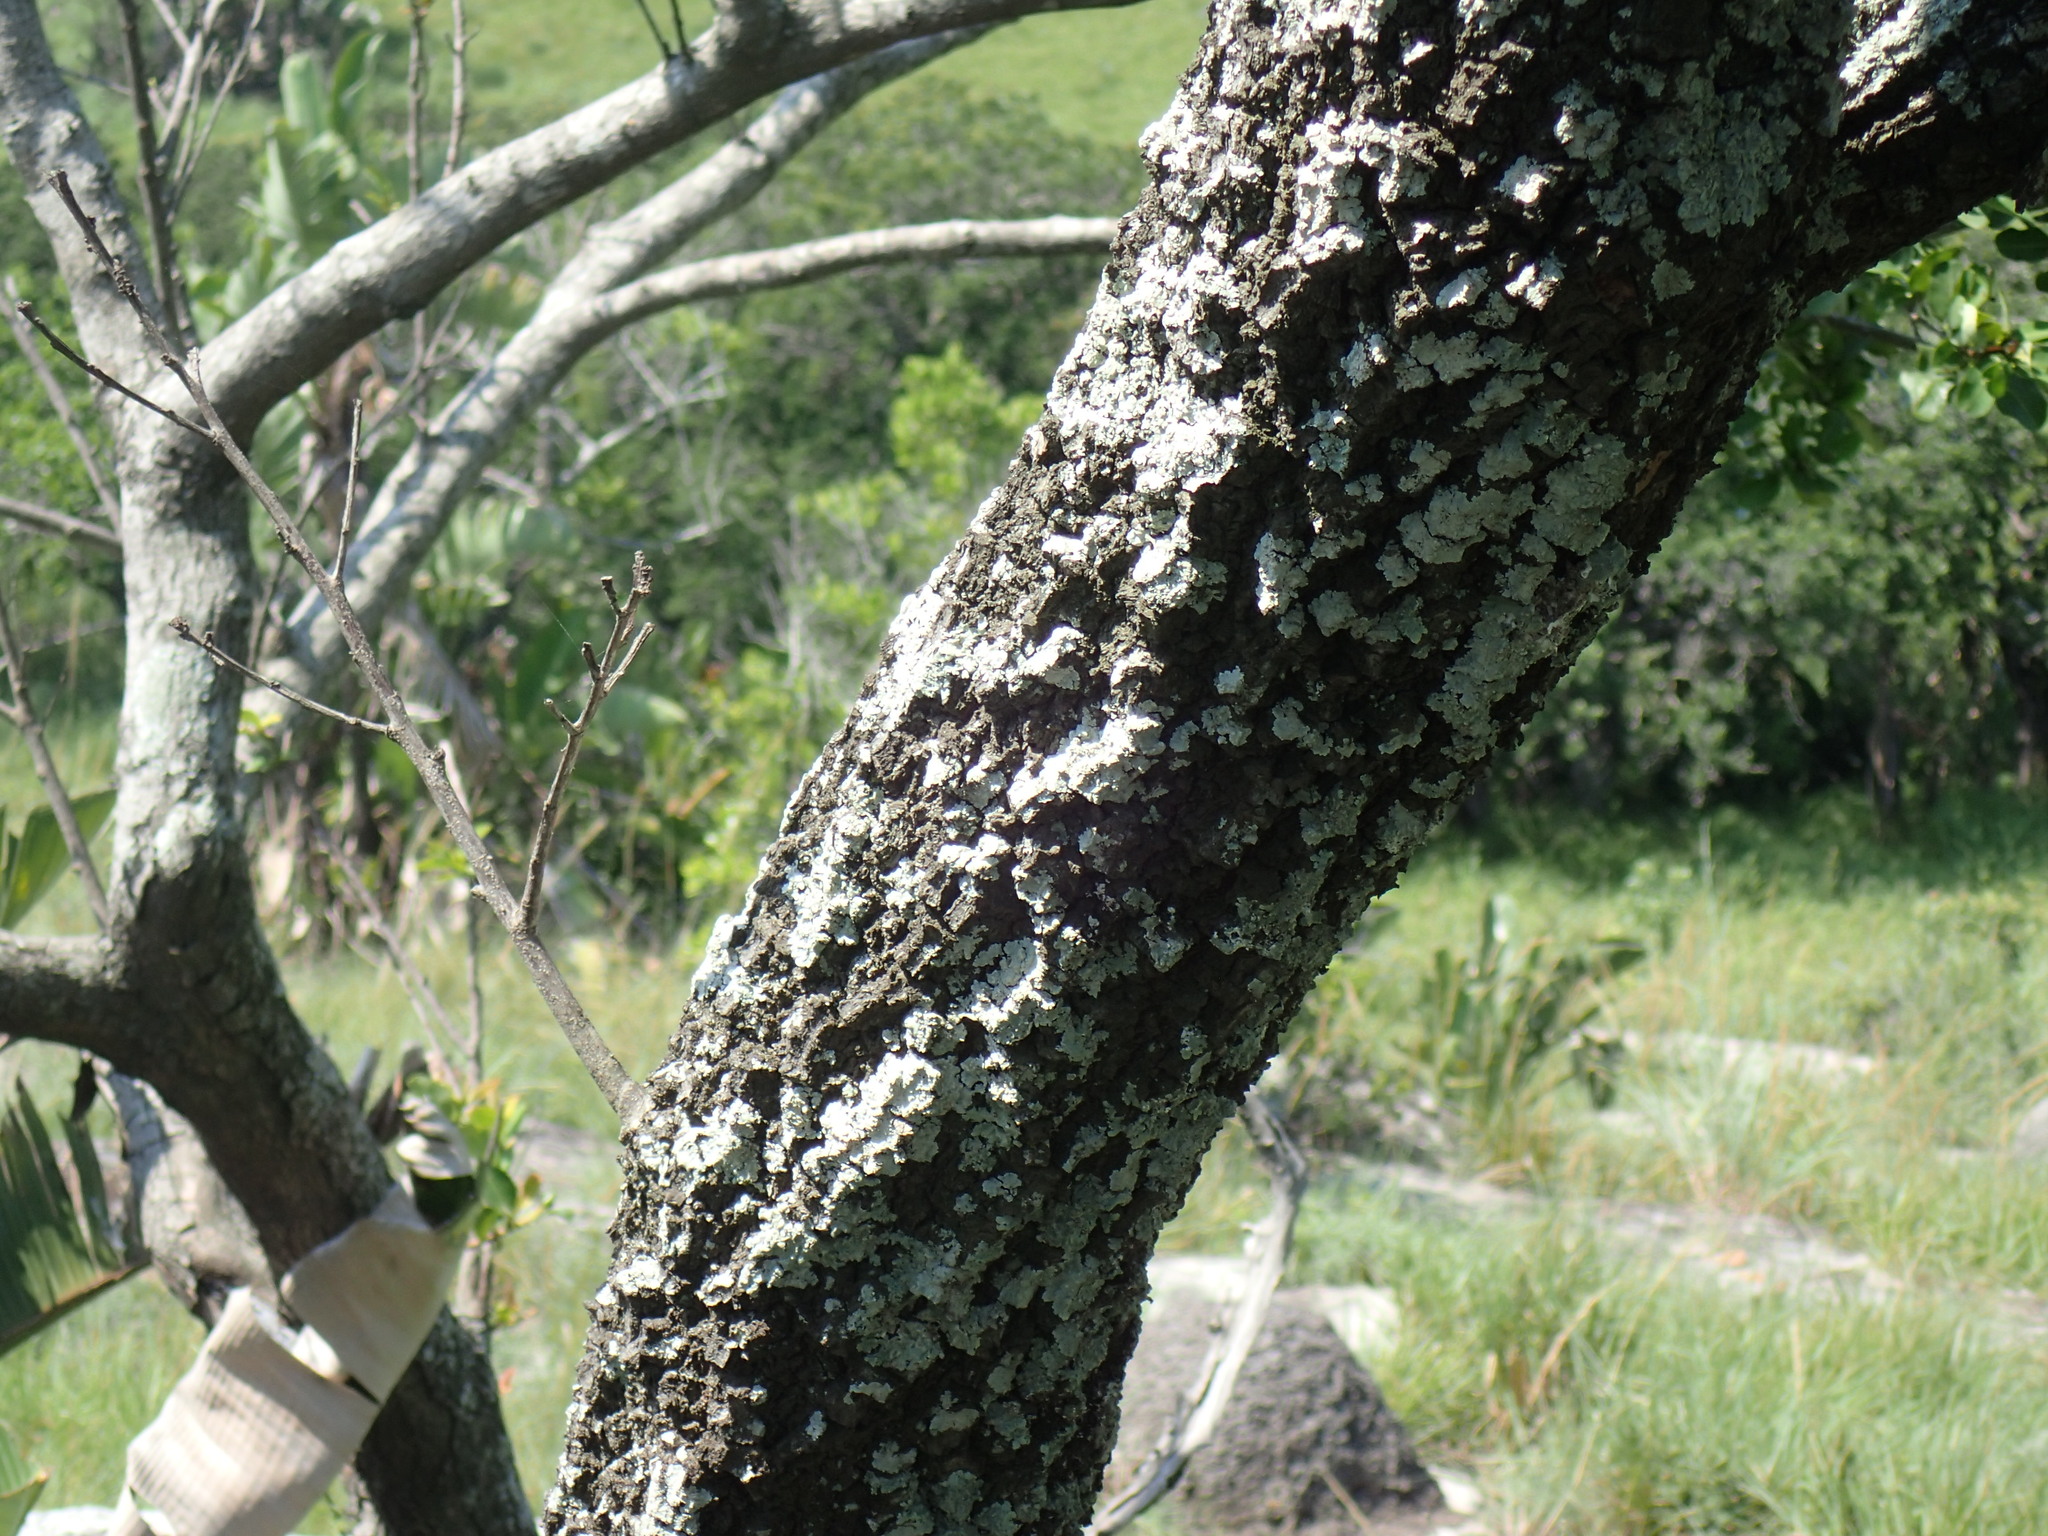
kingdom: Plantae
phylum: Tracheophyta
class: Magnoliopsida
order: Malpighiales
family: Erythroxylaceae
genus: Erythroxylum
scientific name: Erythroxylum pictum
